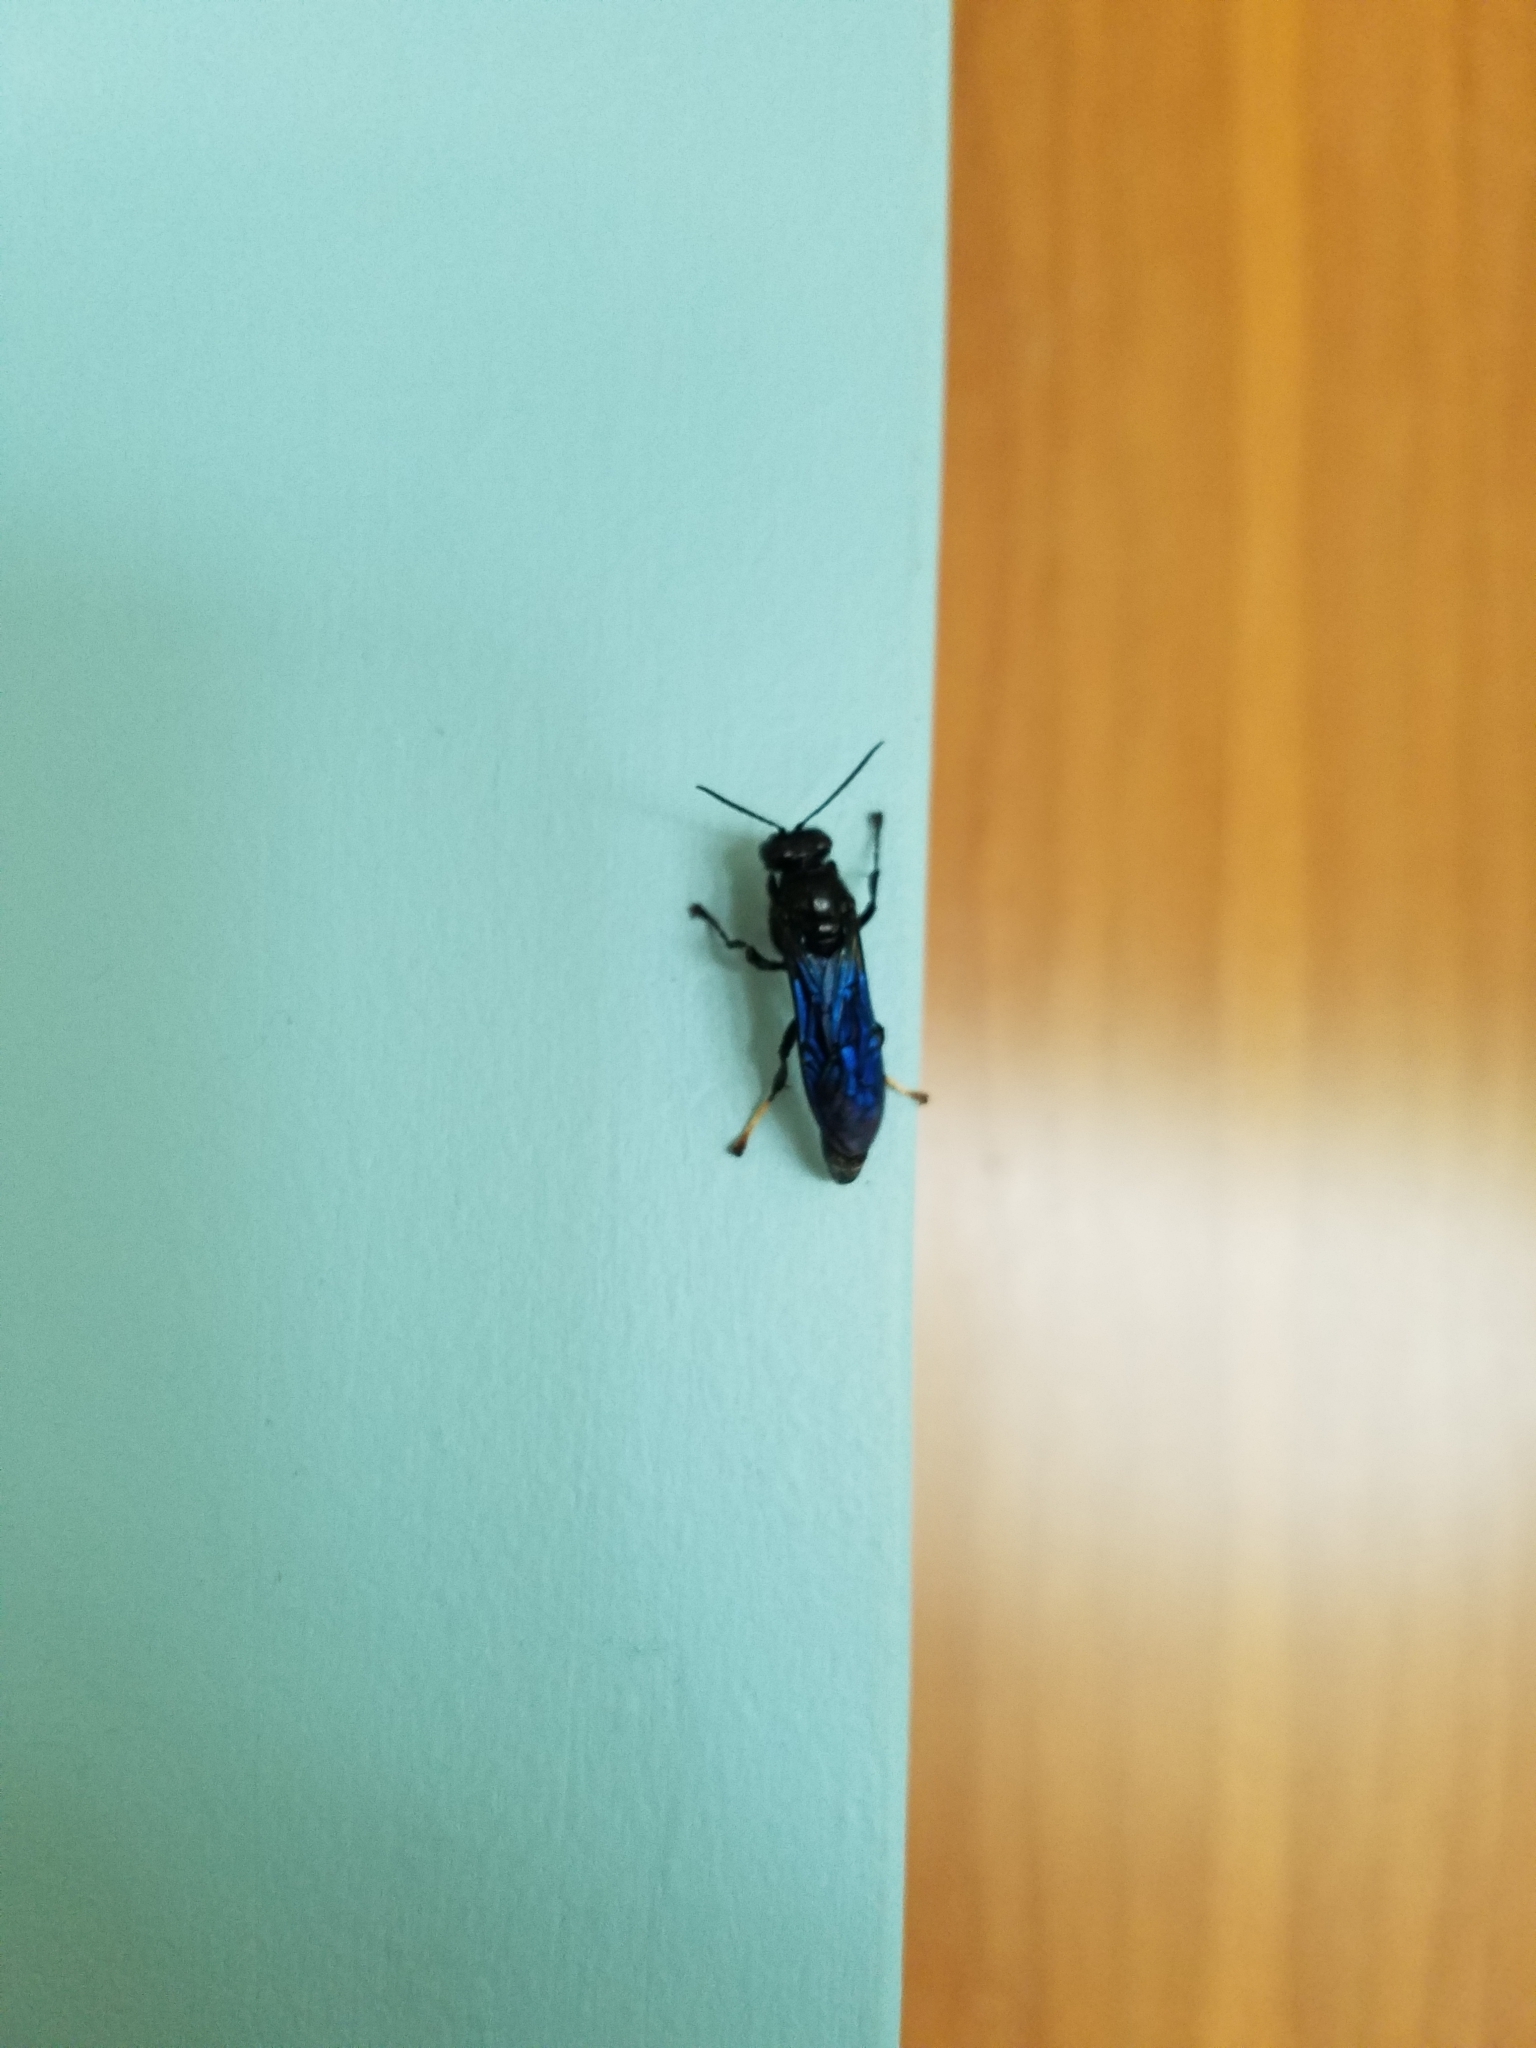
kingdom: Animalia
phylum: Arthropoda
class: Insecta
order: Hymenoptera
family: Crabronidae
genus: Trypoxylon
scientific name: Trypoxylon politum
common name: Organ-pipe mud-dauber wasp
